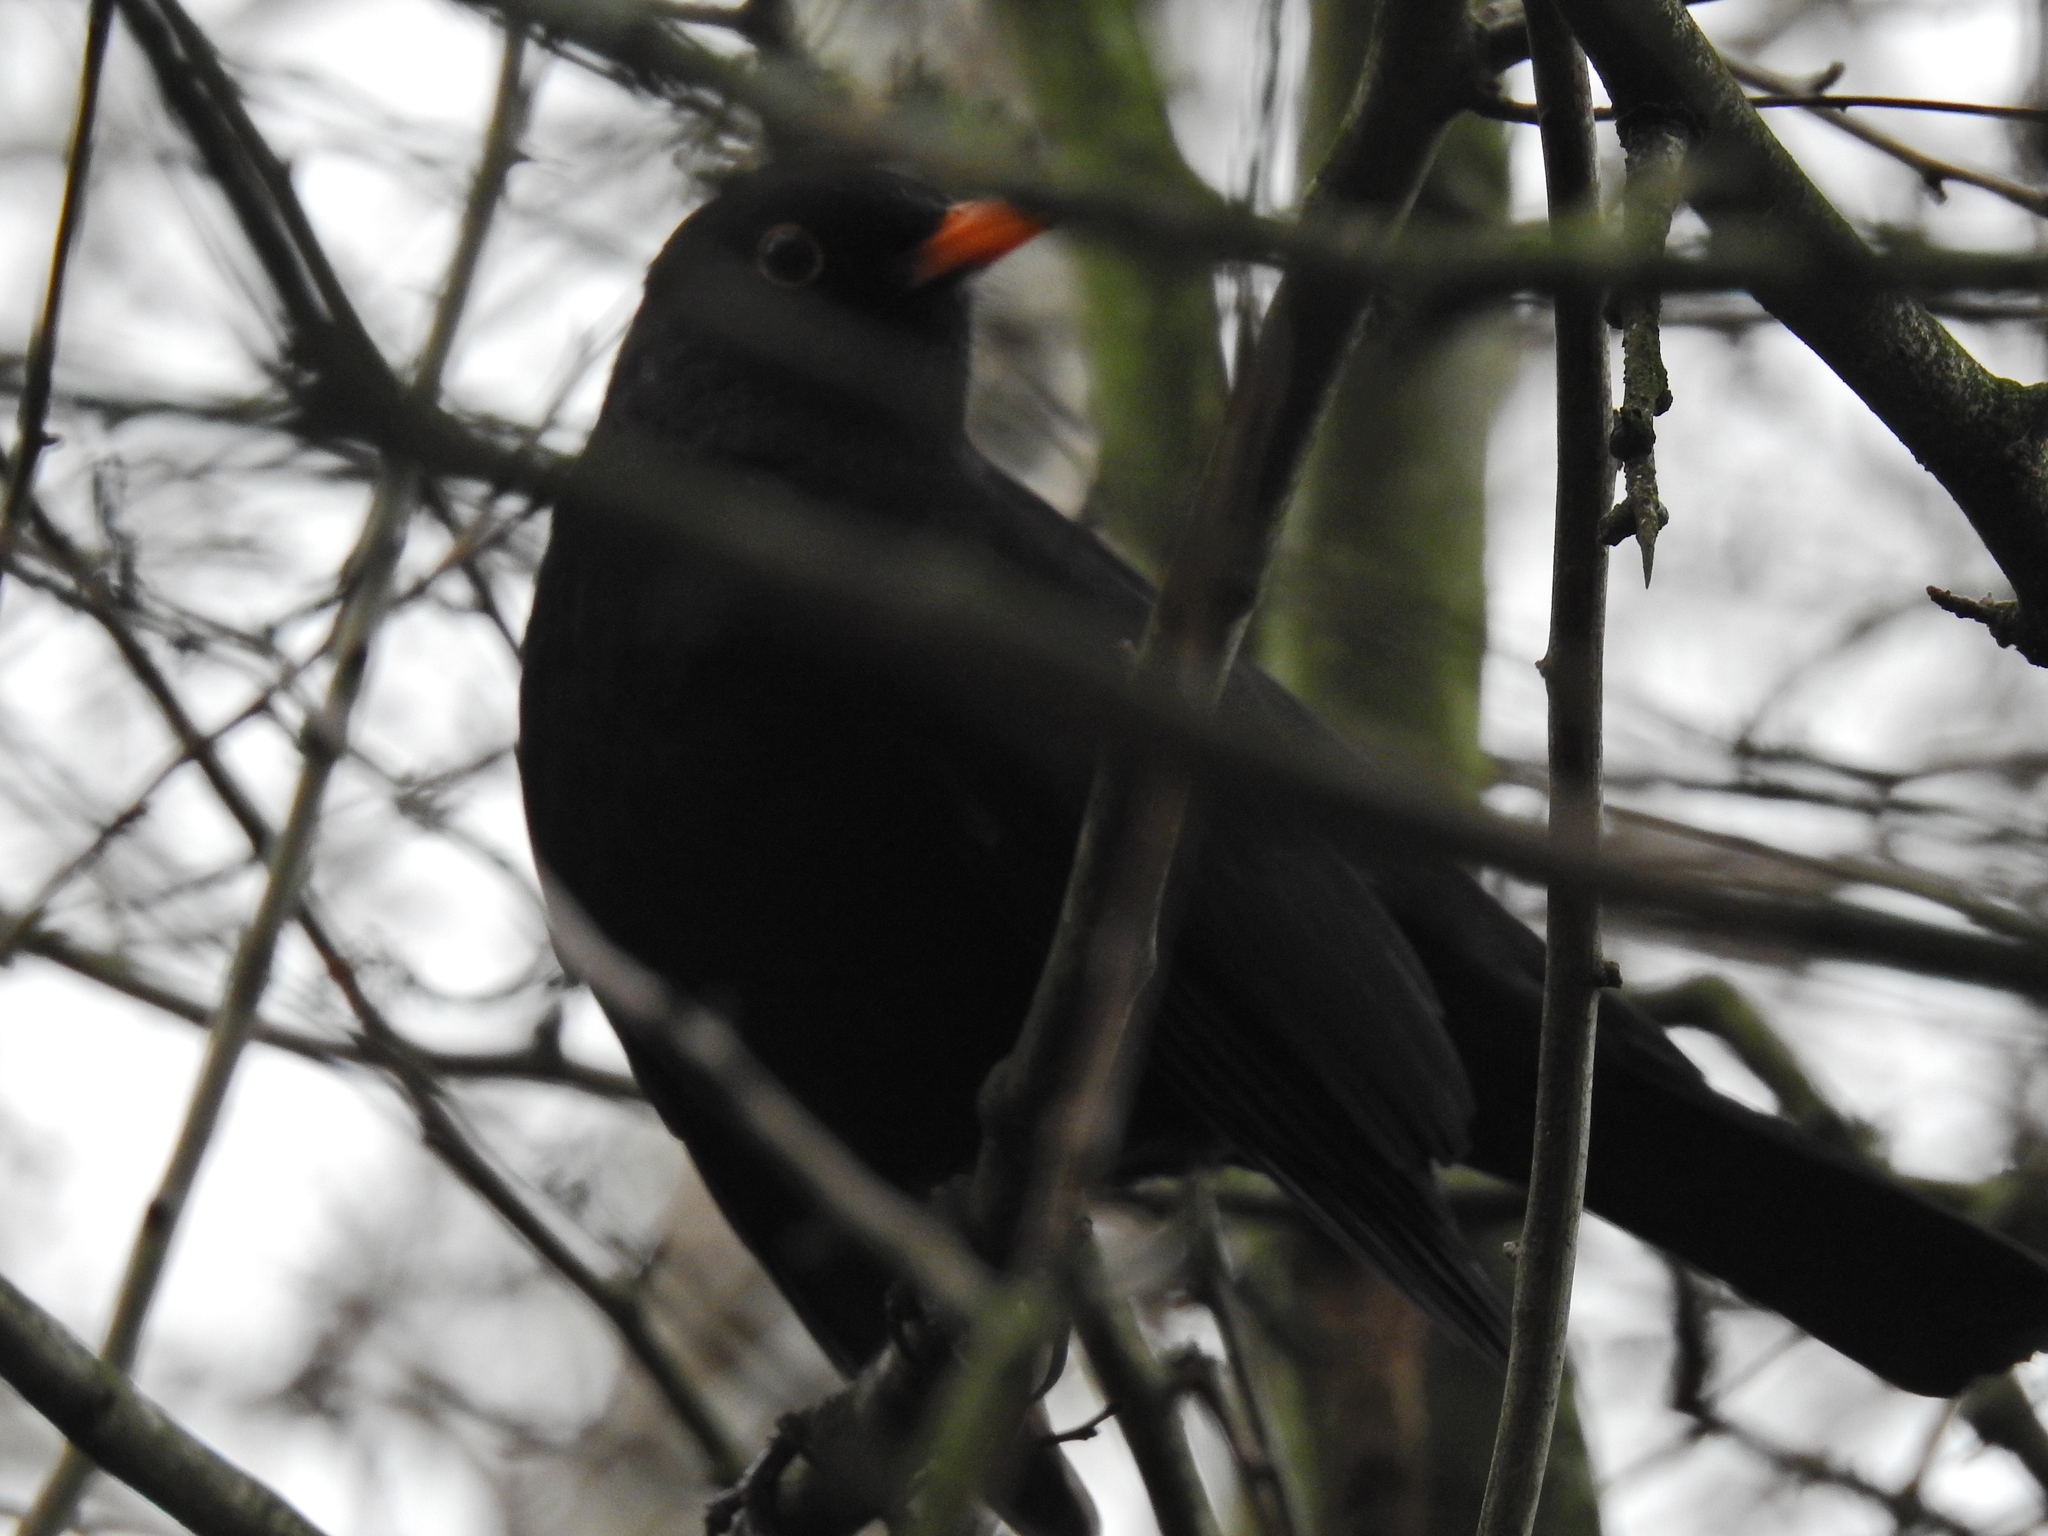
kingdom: Animalia
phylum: Chordata
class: Aves
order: Passeriformes
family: Turdidae
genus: Turdus
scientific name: Turdus merula
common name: Common blackbird
